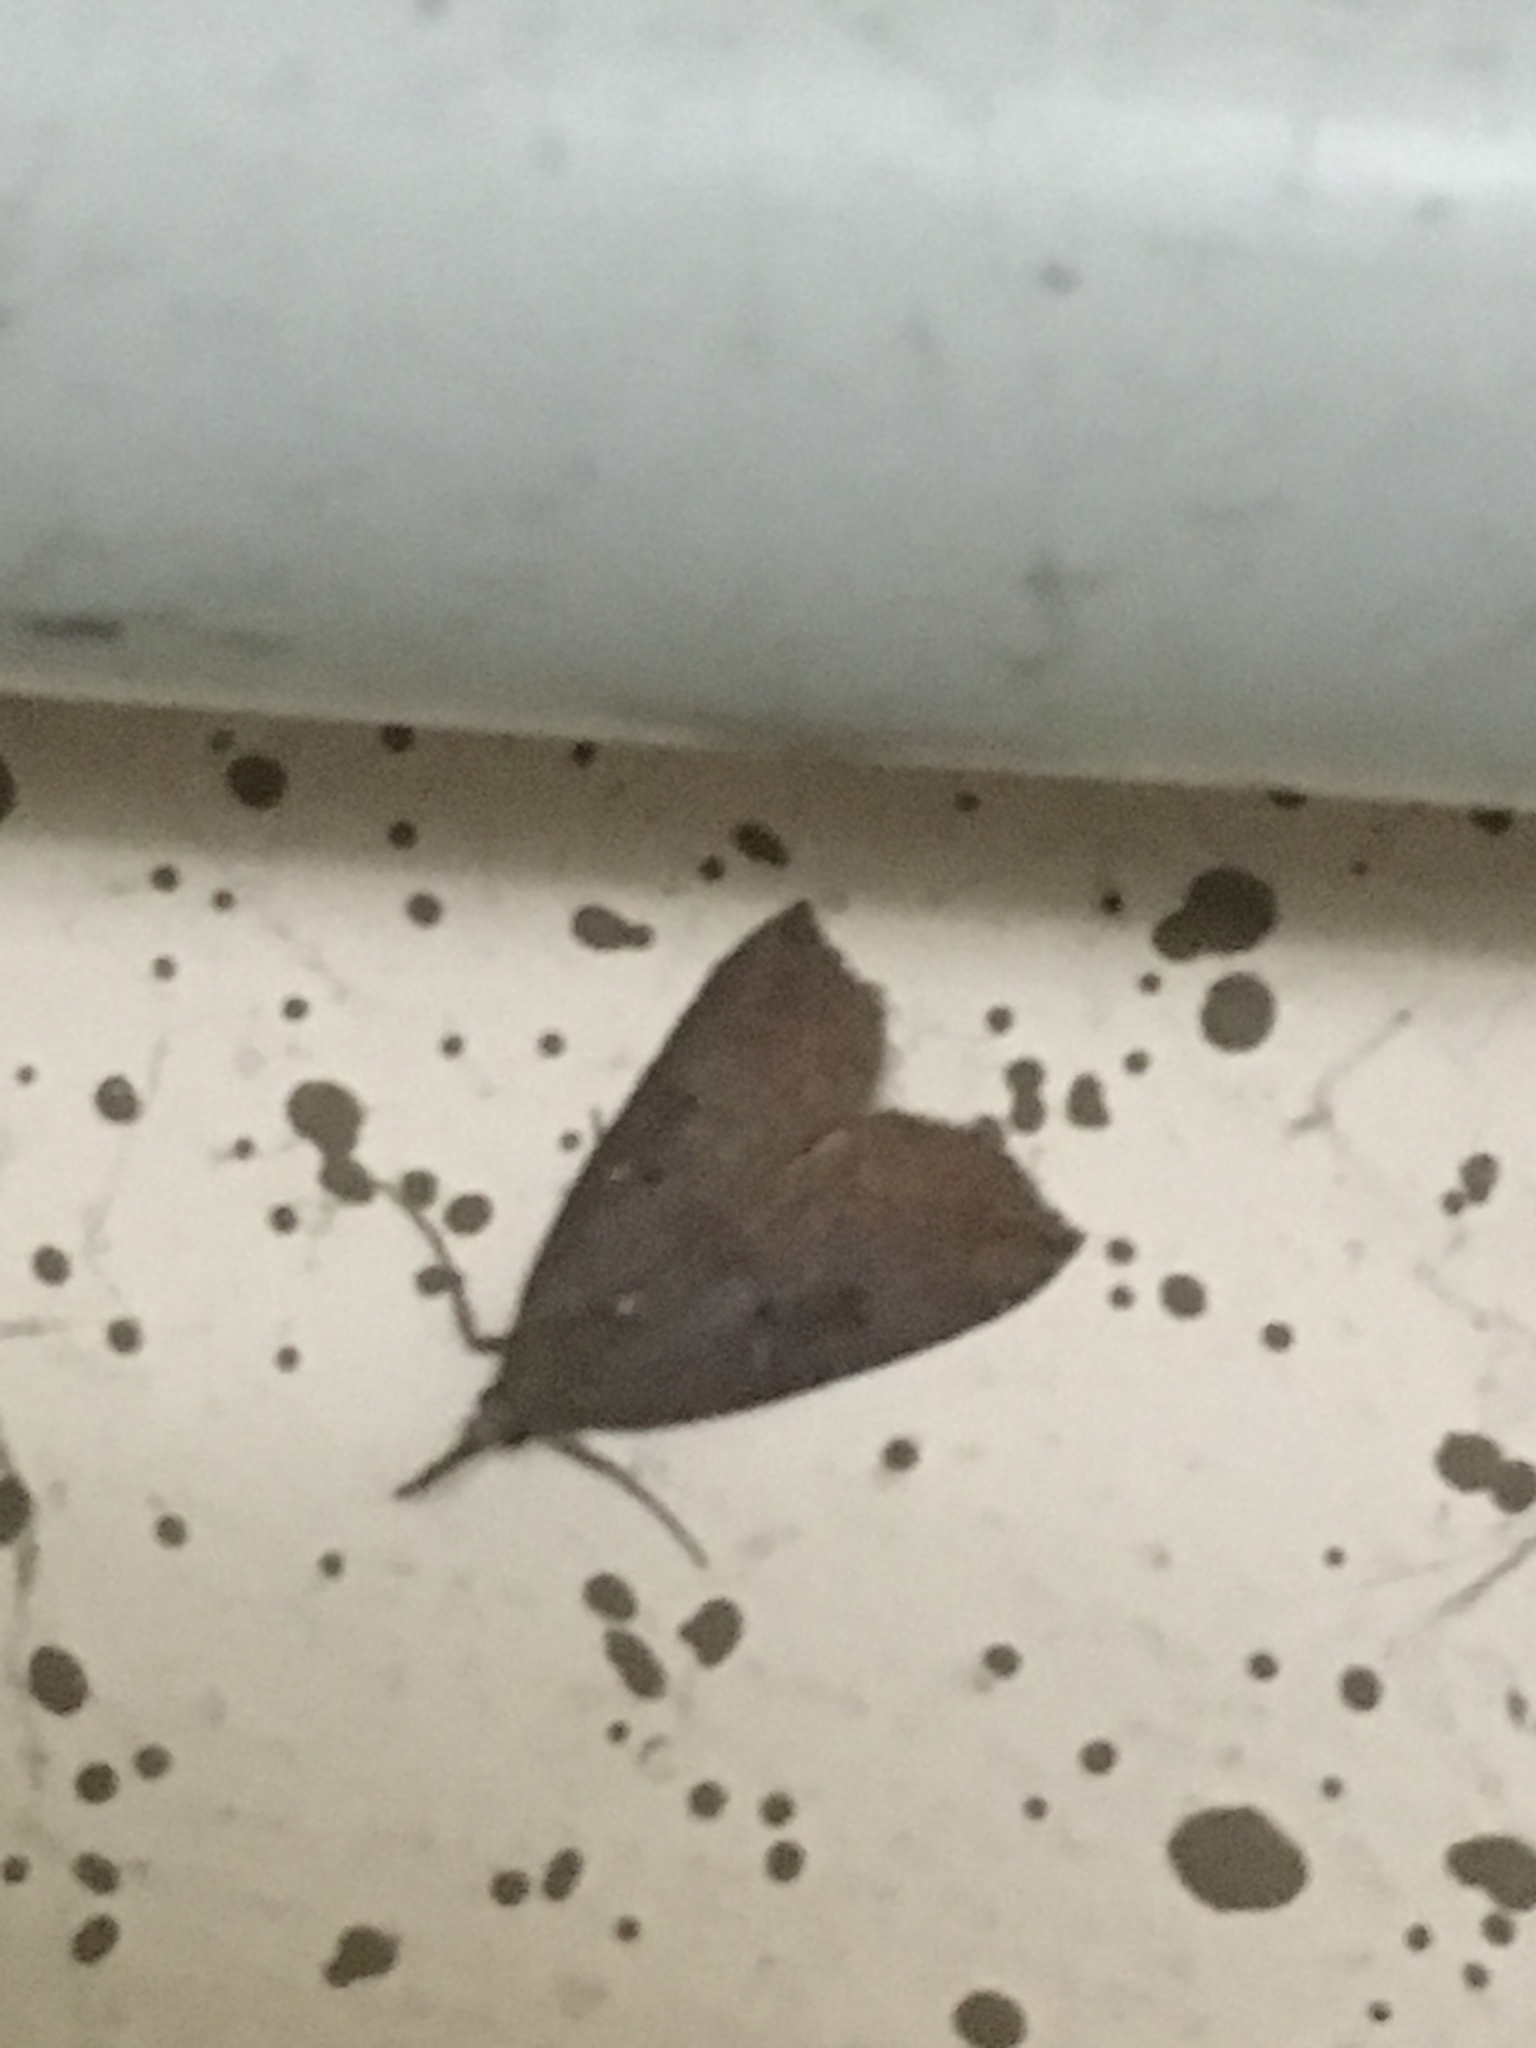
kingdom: Animalia
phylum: Arthropoda
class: Insecta
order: Lepidoptera
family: Erebidae
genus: Hypena
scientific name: Hypena rostralis
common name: Buttoned snout
